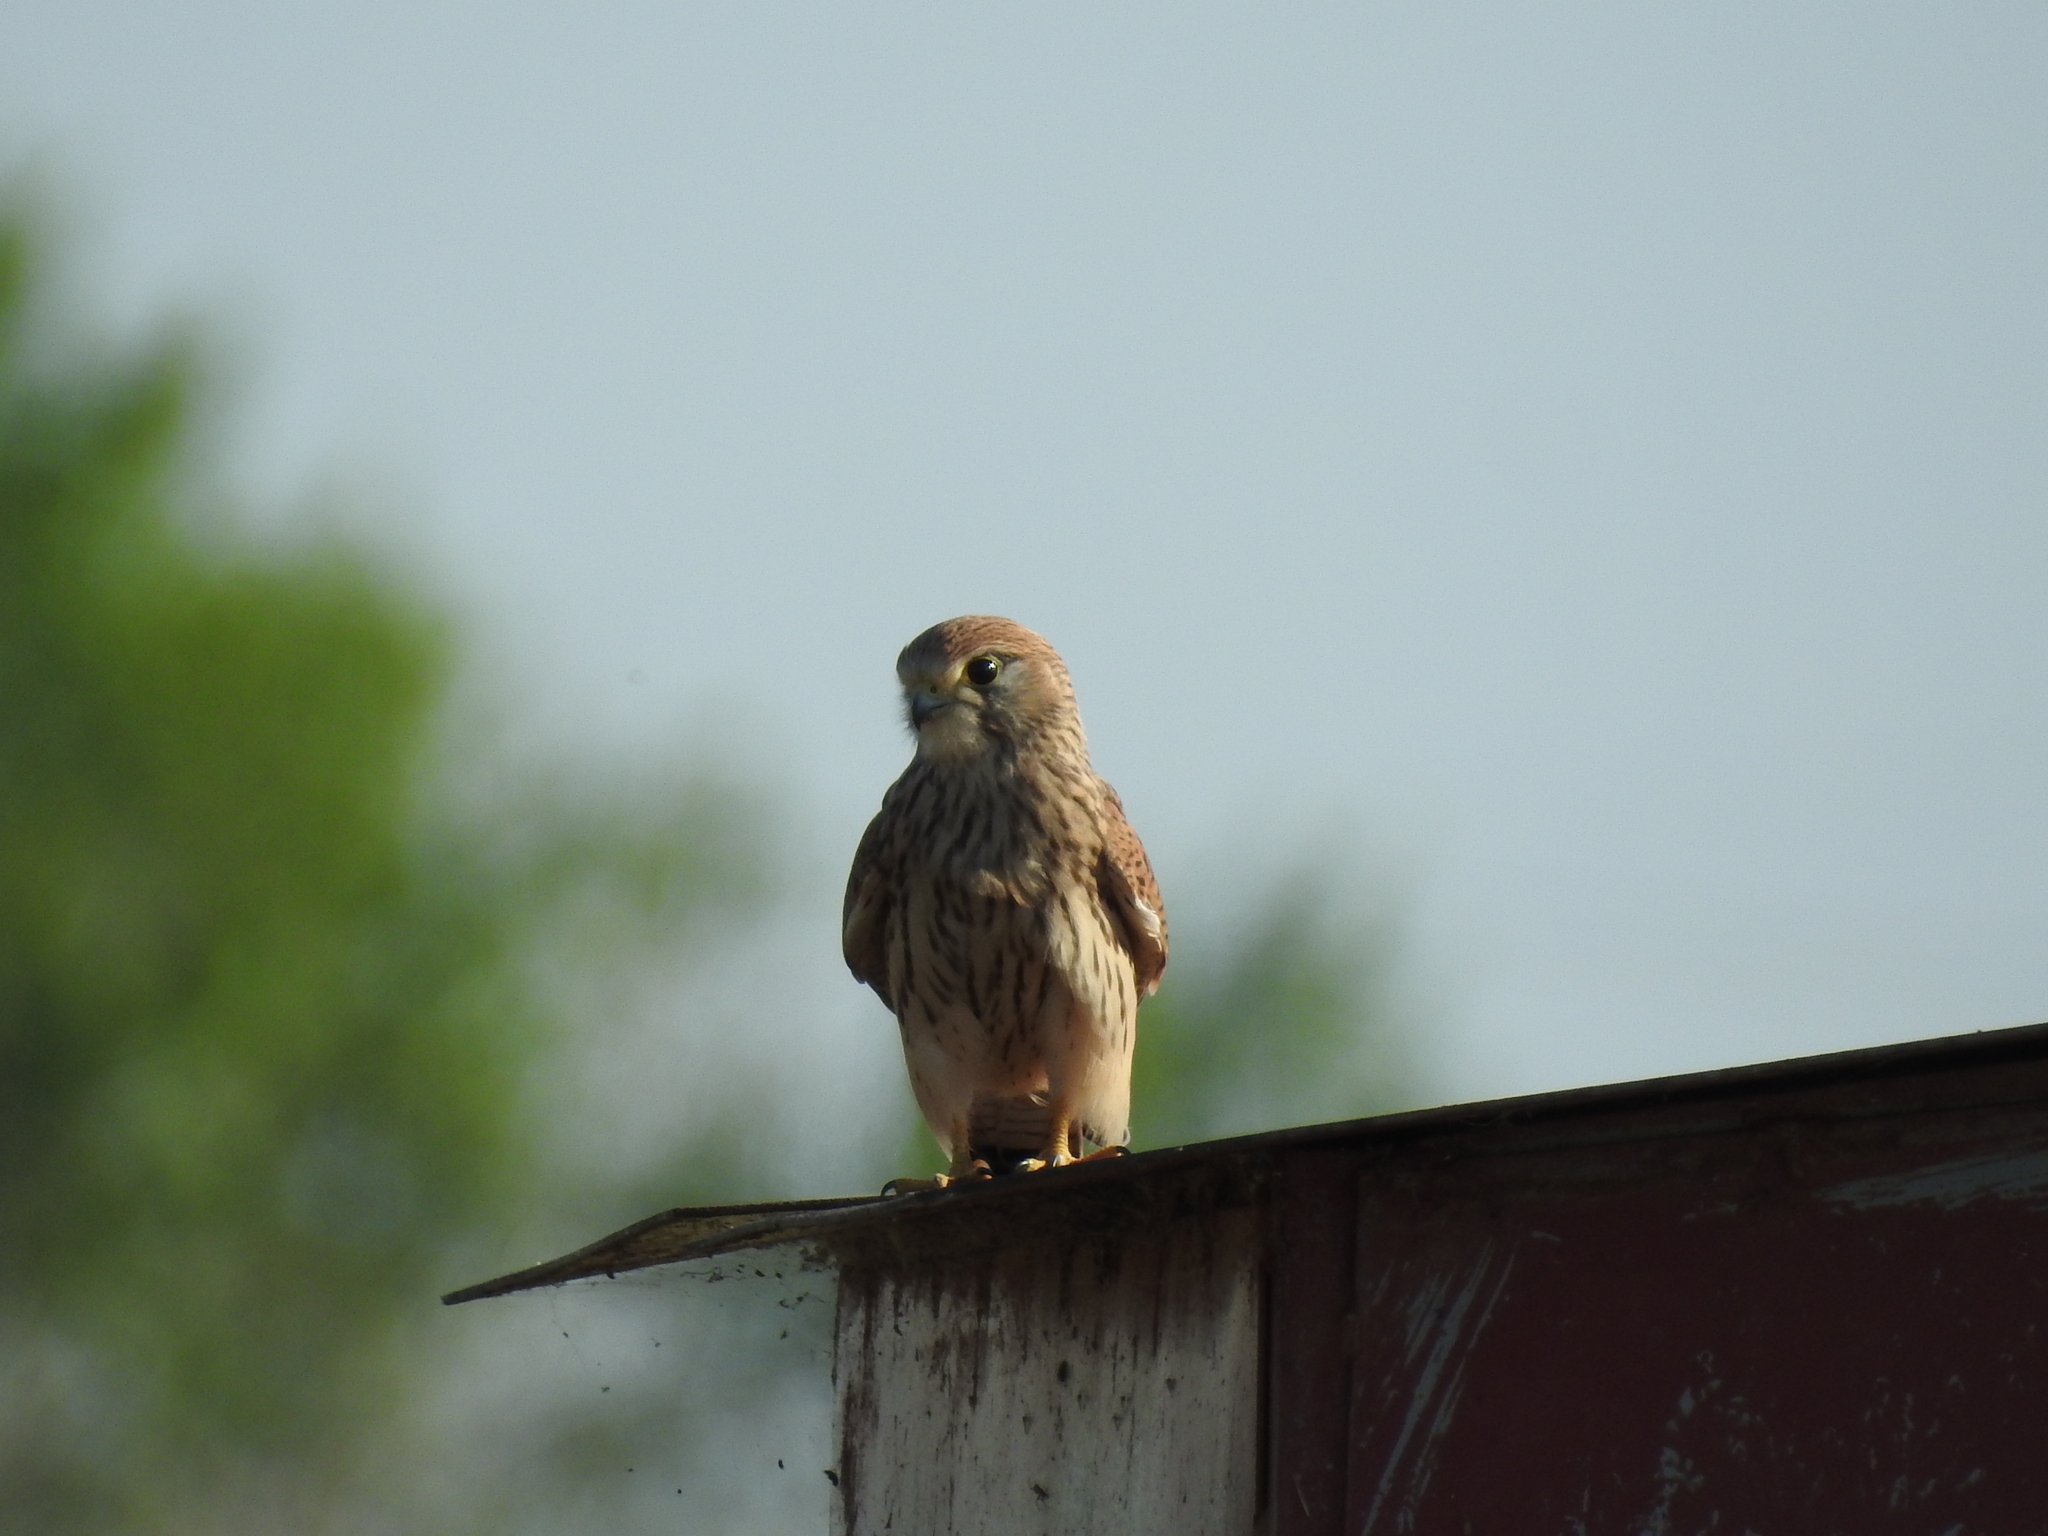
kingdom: Animalia
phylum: Chordata
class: Aves
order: Falconiformes
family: Falconidae
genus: Falco
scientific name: Falco tinnunculus
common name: Common kestrel
